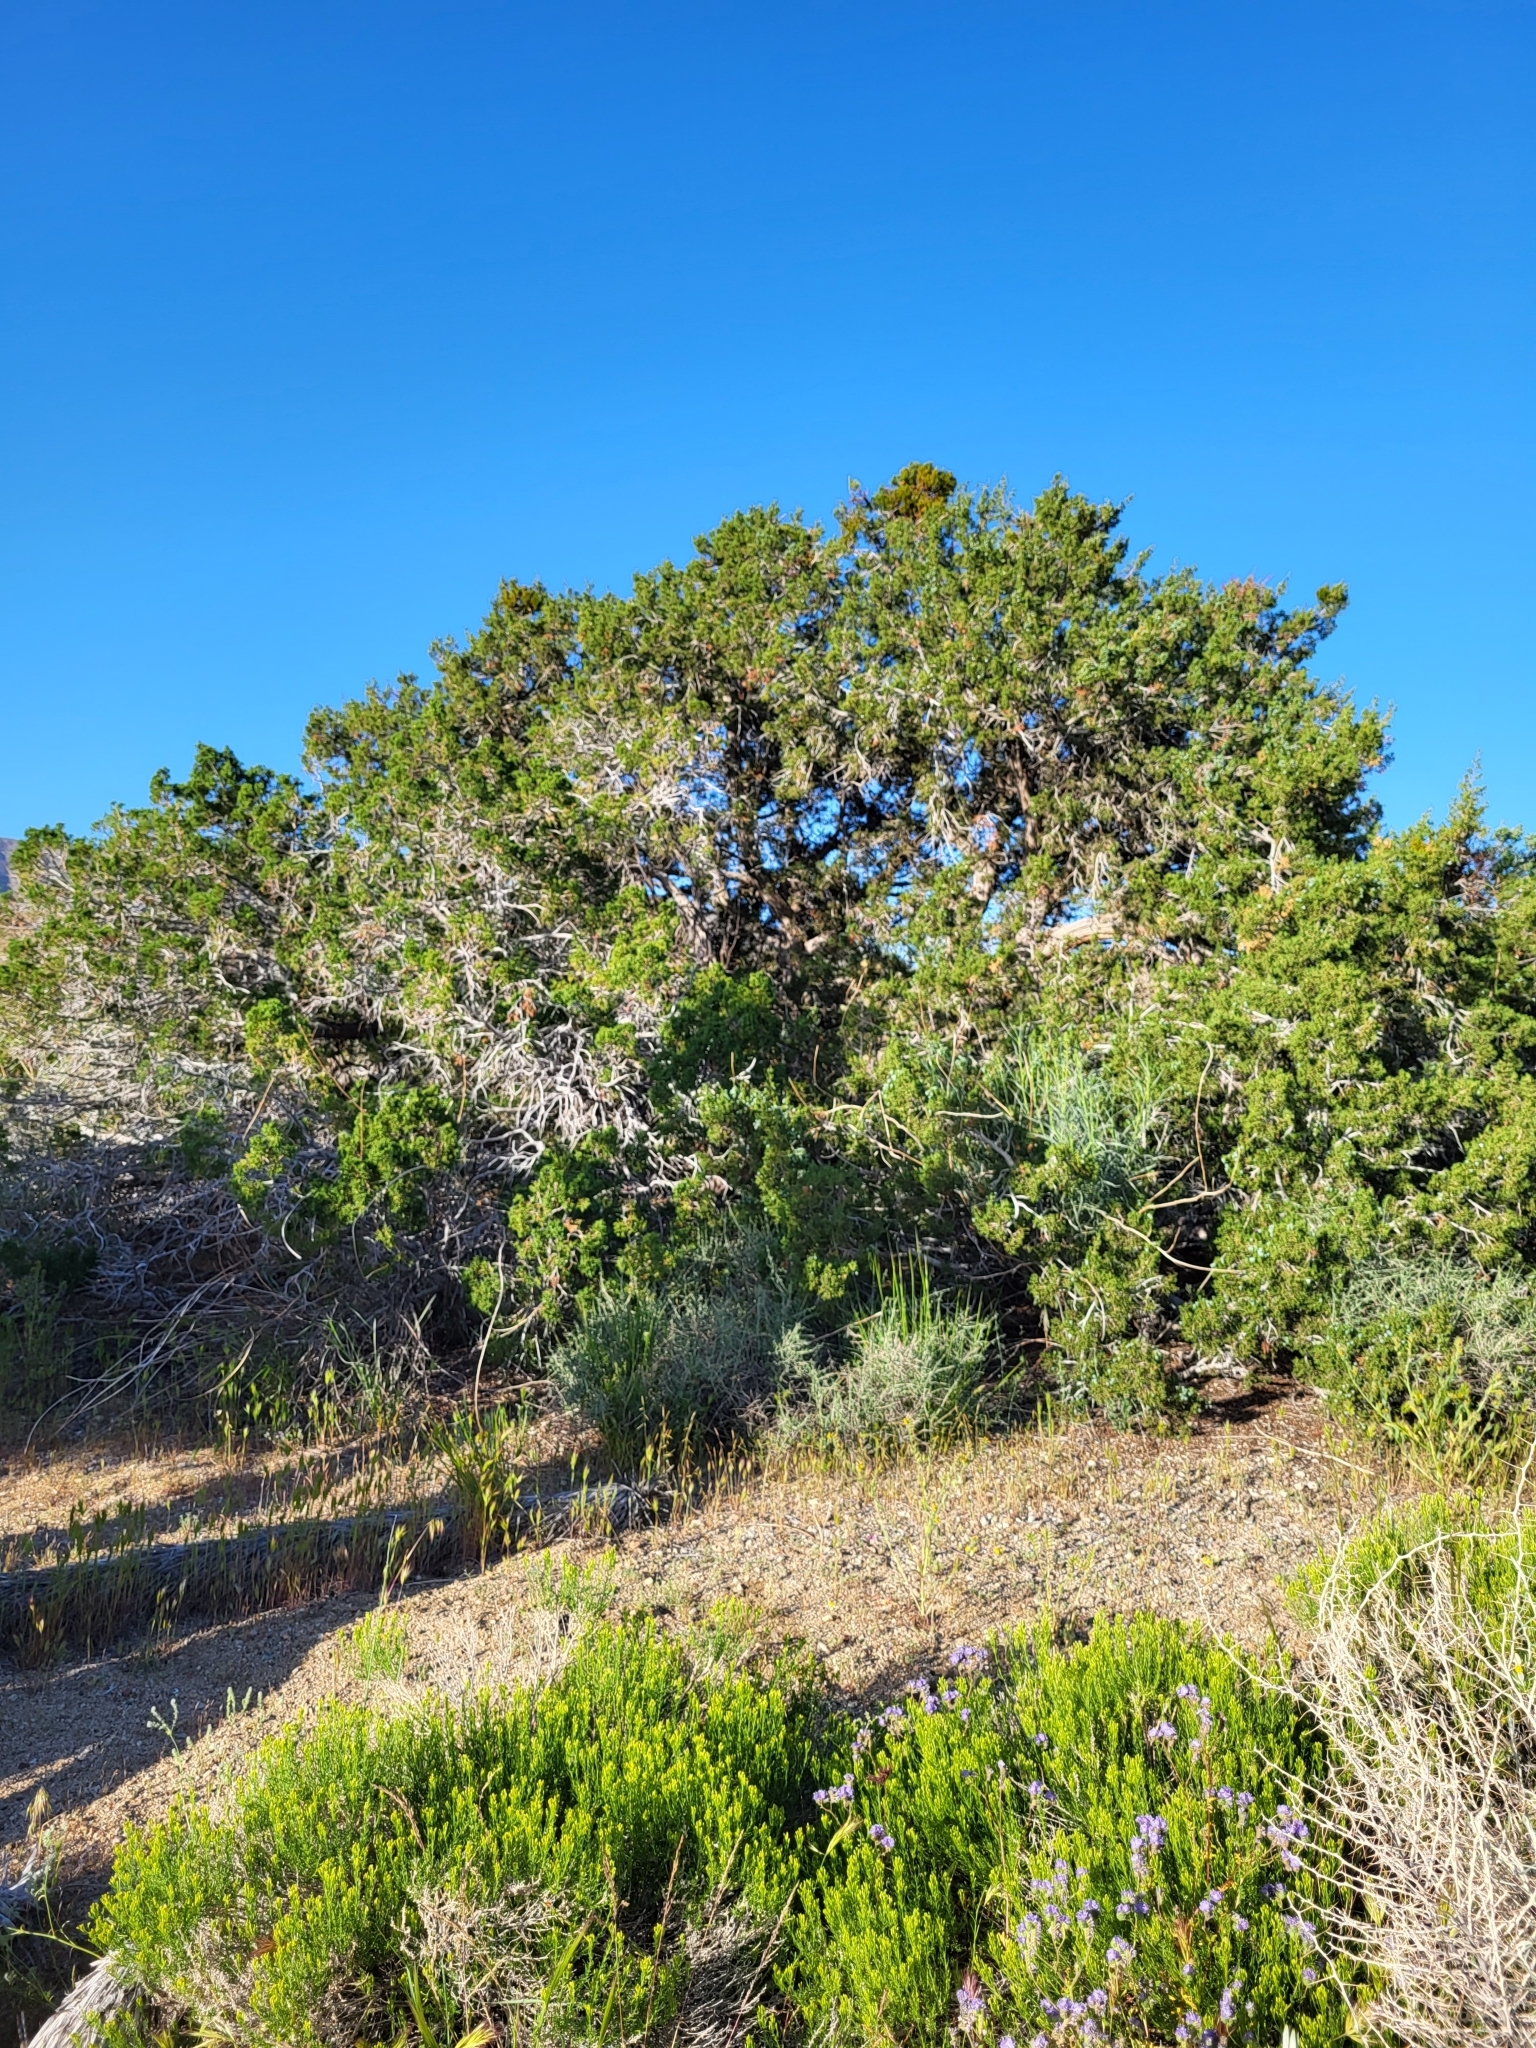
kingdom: Plantae
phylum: Tracheophyta
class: Pinopsida
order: Pinales
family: Cupressaceae
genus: Juniperus
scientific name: Juniperus californica
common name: California juniper
